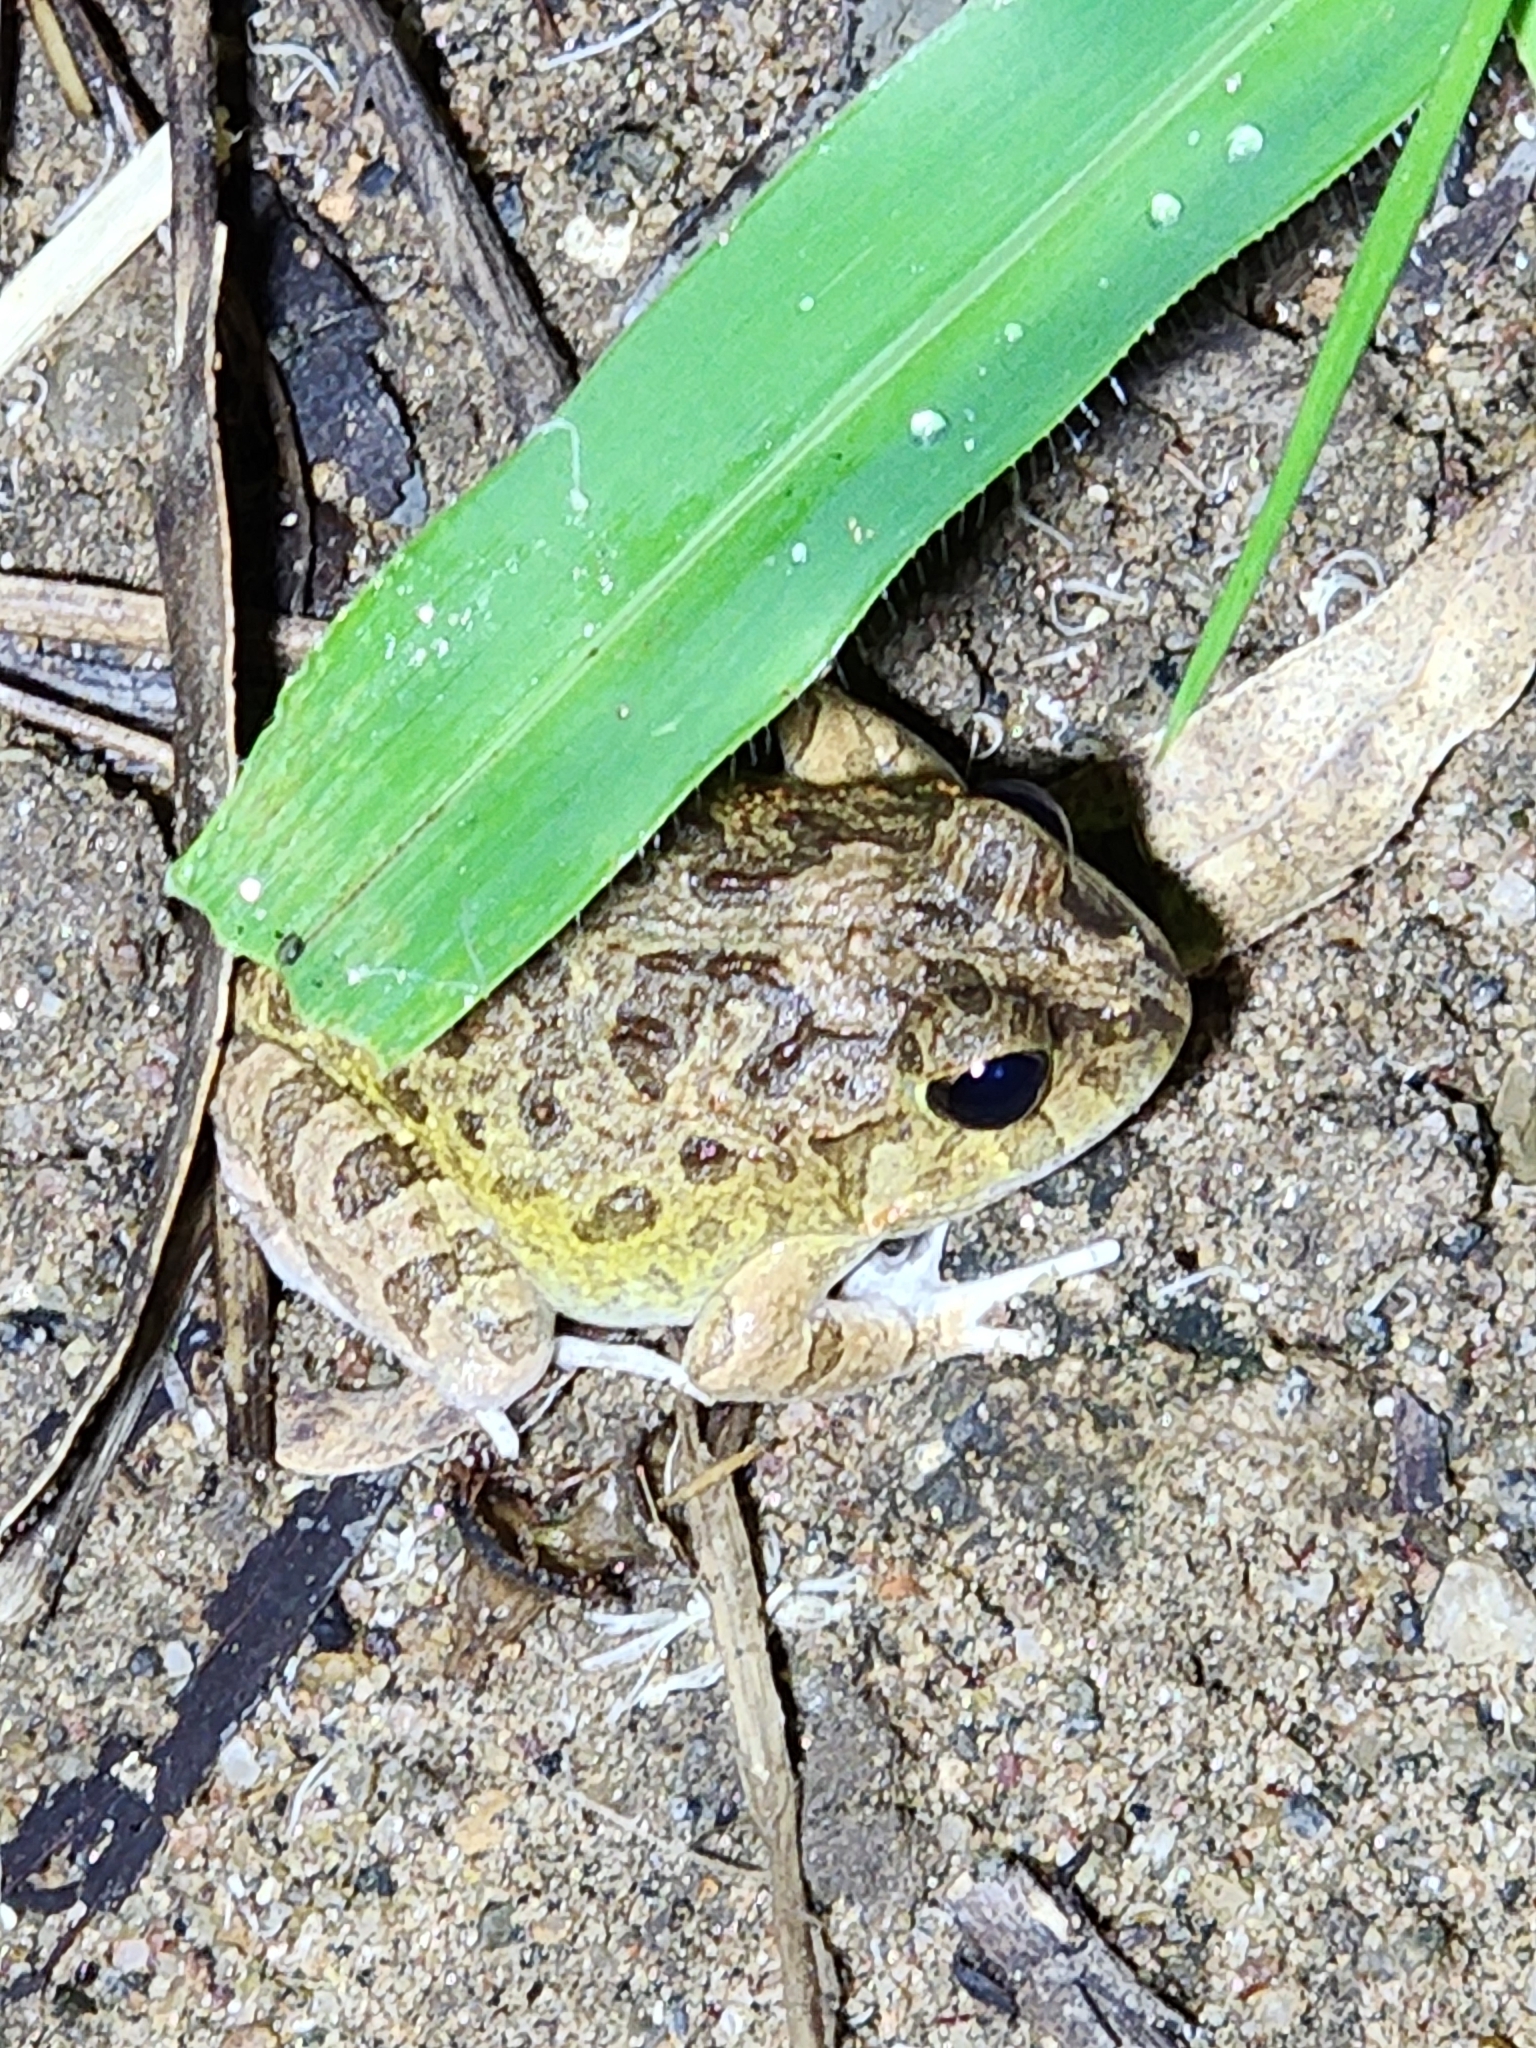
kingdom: Animalia
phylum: Chordata
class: Amphibia
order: Anura
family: Limnodynastidae
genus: Platyplectrum
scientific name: Platyplectrum ornatum
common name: Ornate burrowing frog
